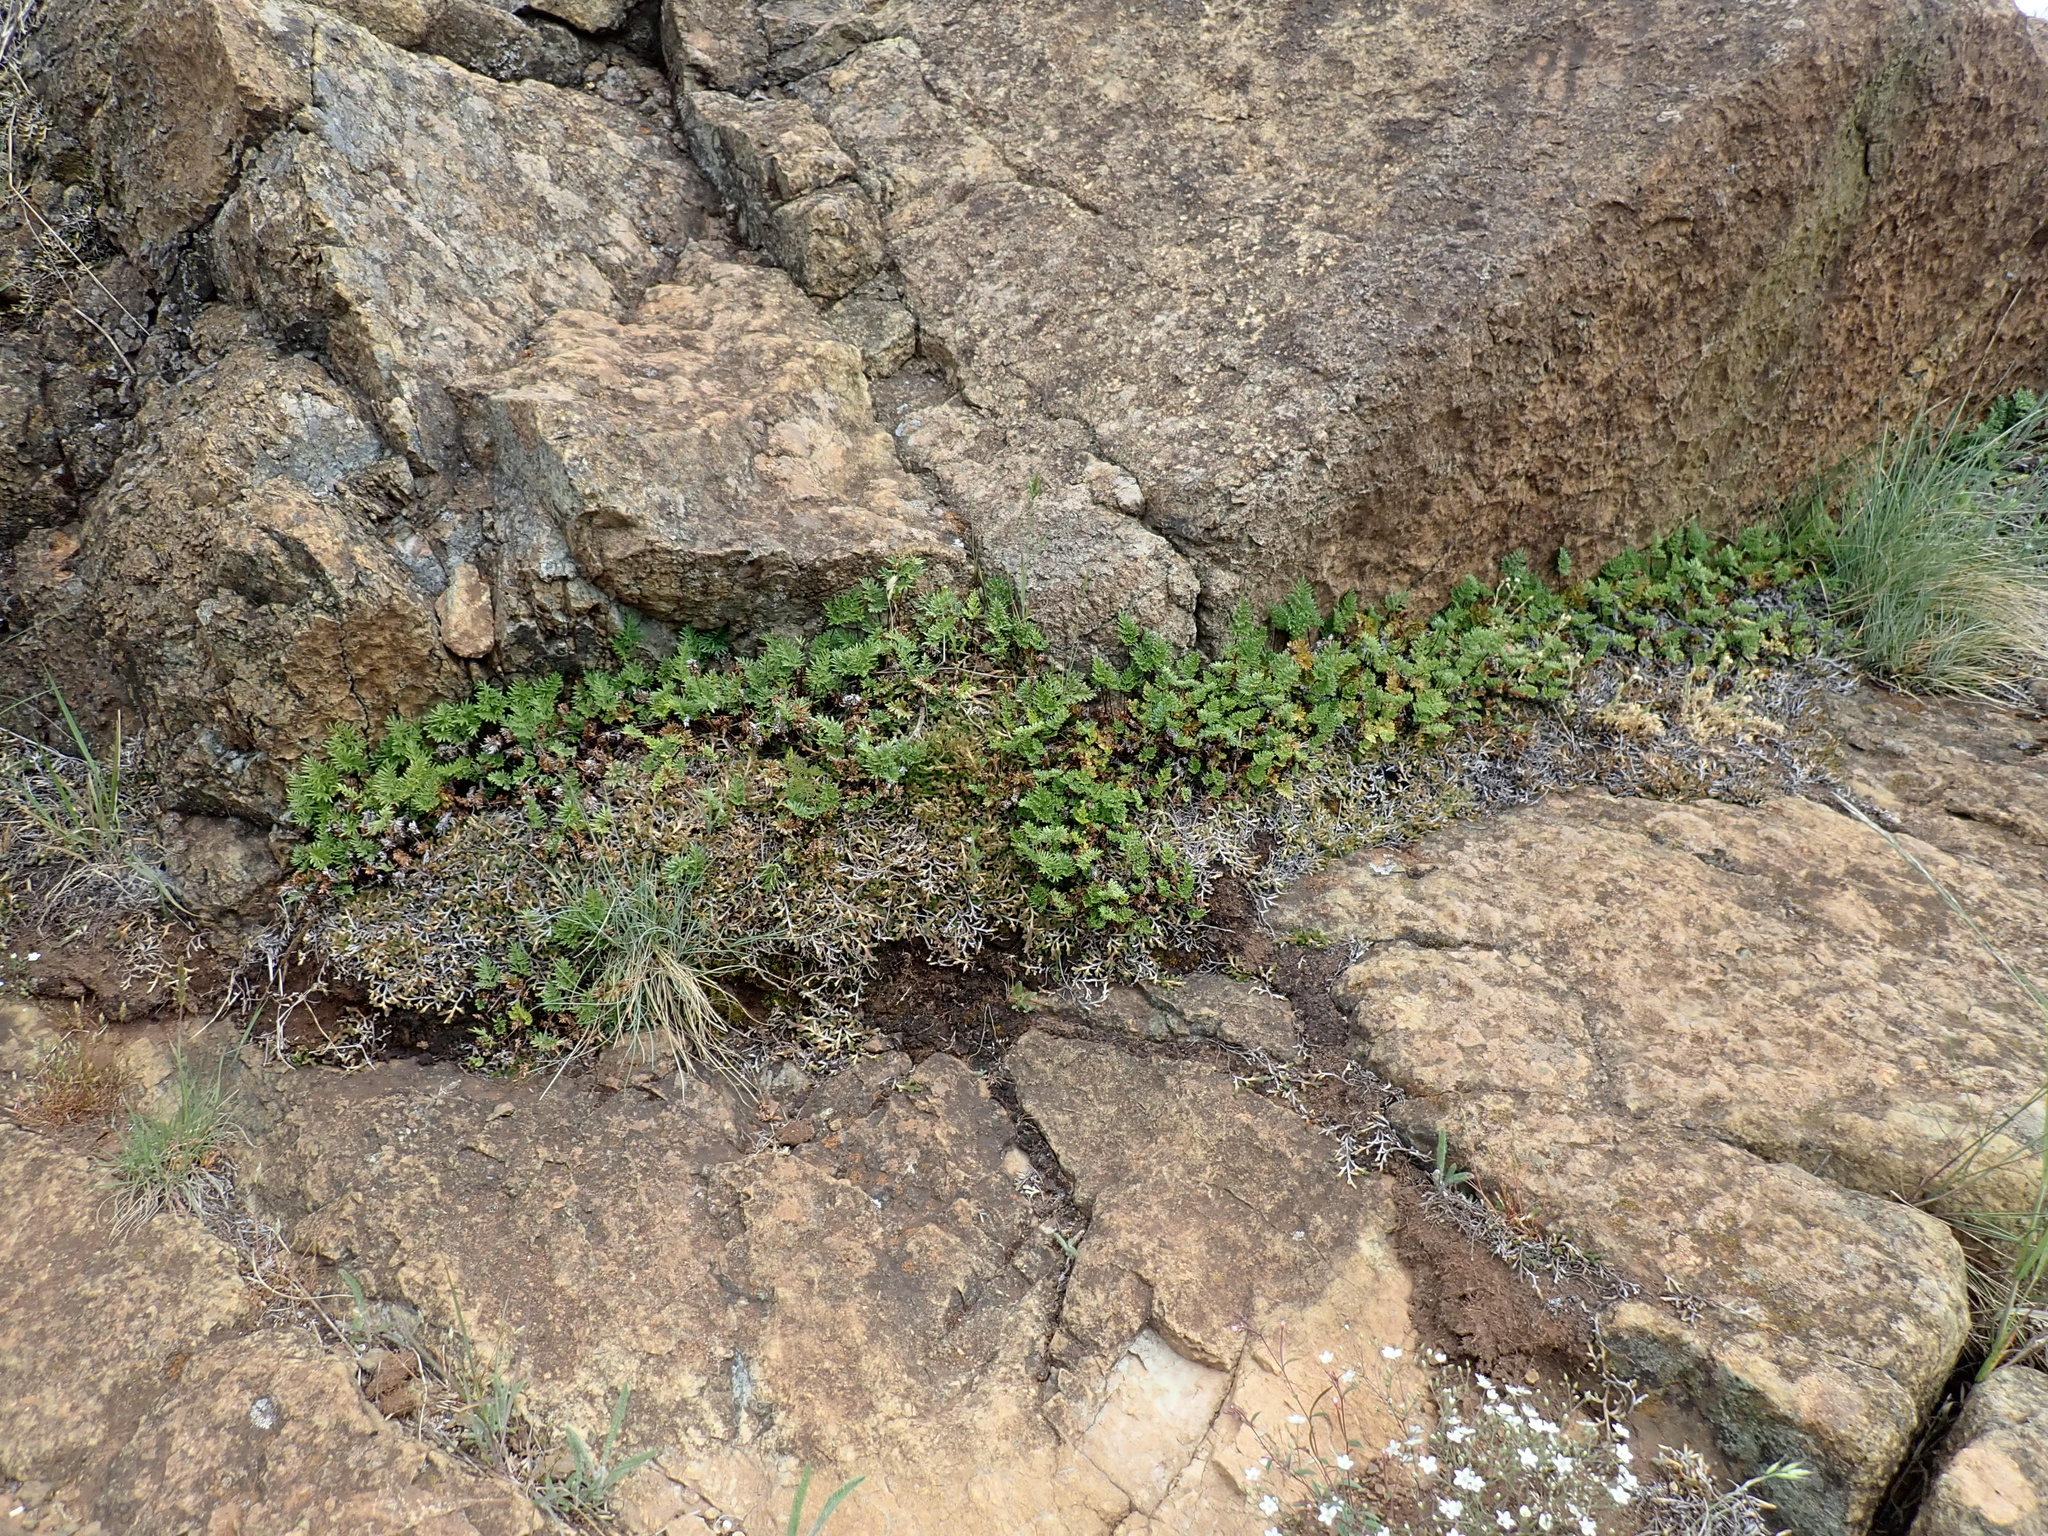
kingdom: Plantae
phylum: Tracheophyta
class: Polypodiopsida
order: Polypodiales
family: Pteridaceae
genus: Aspidotis
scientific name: Aspidotis densa
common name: Indian's dream
